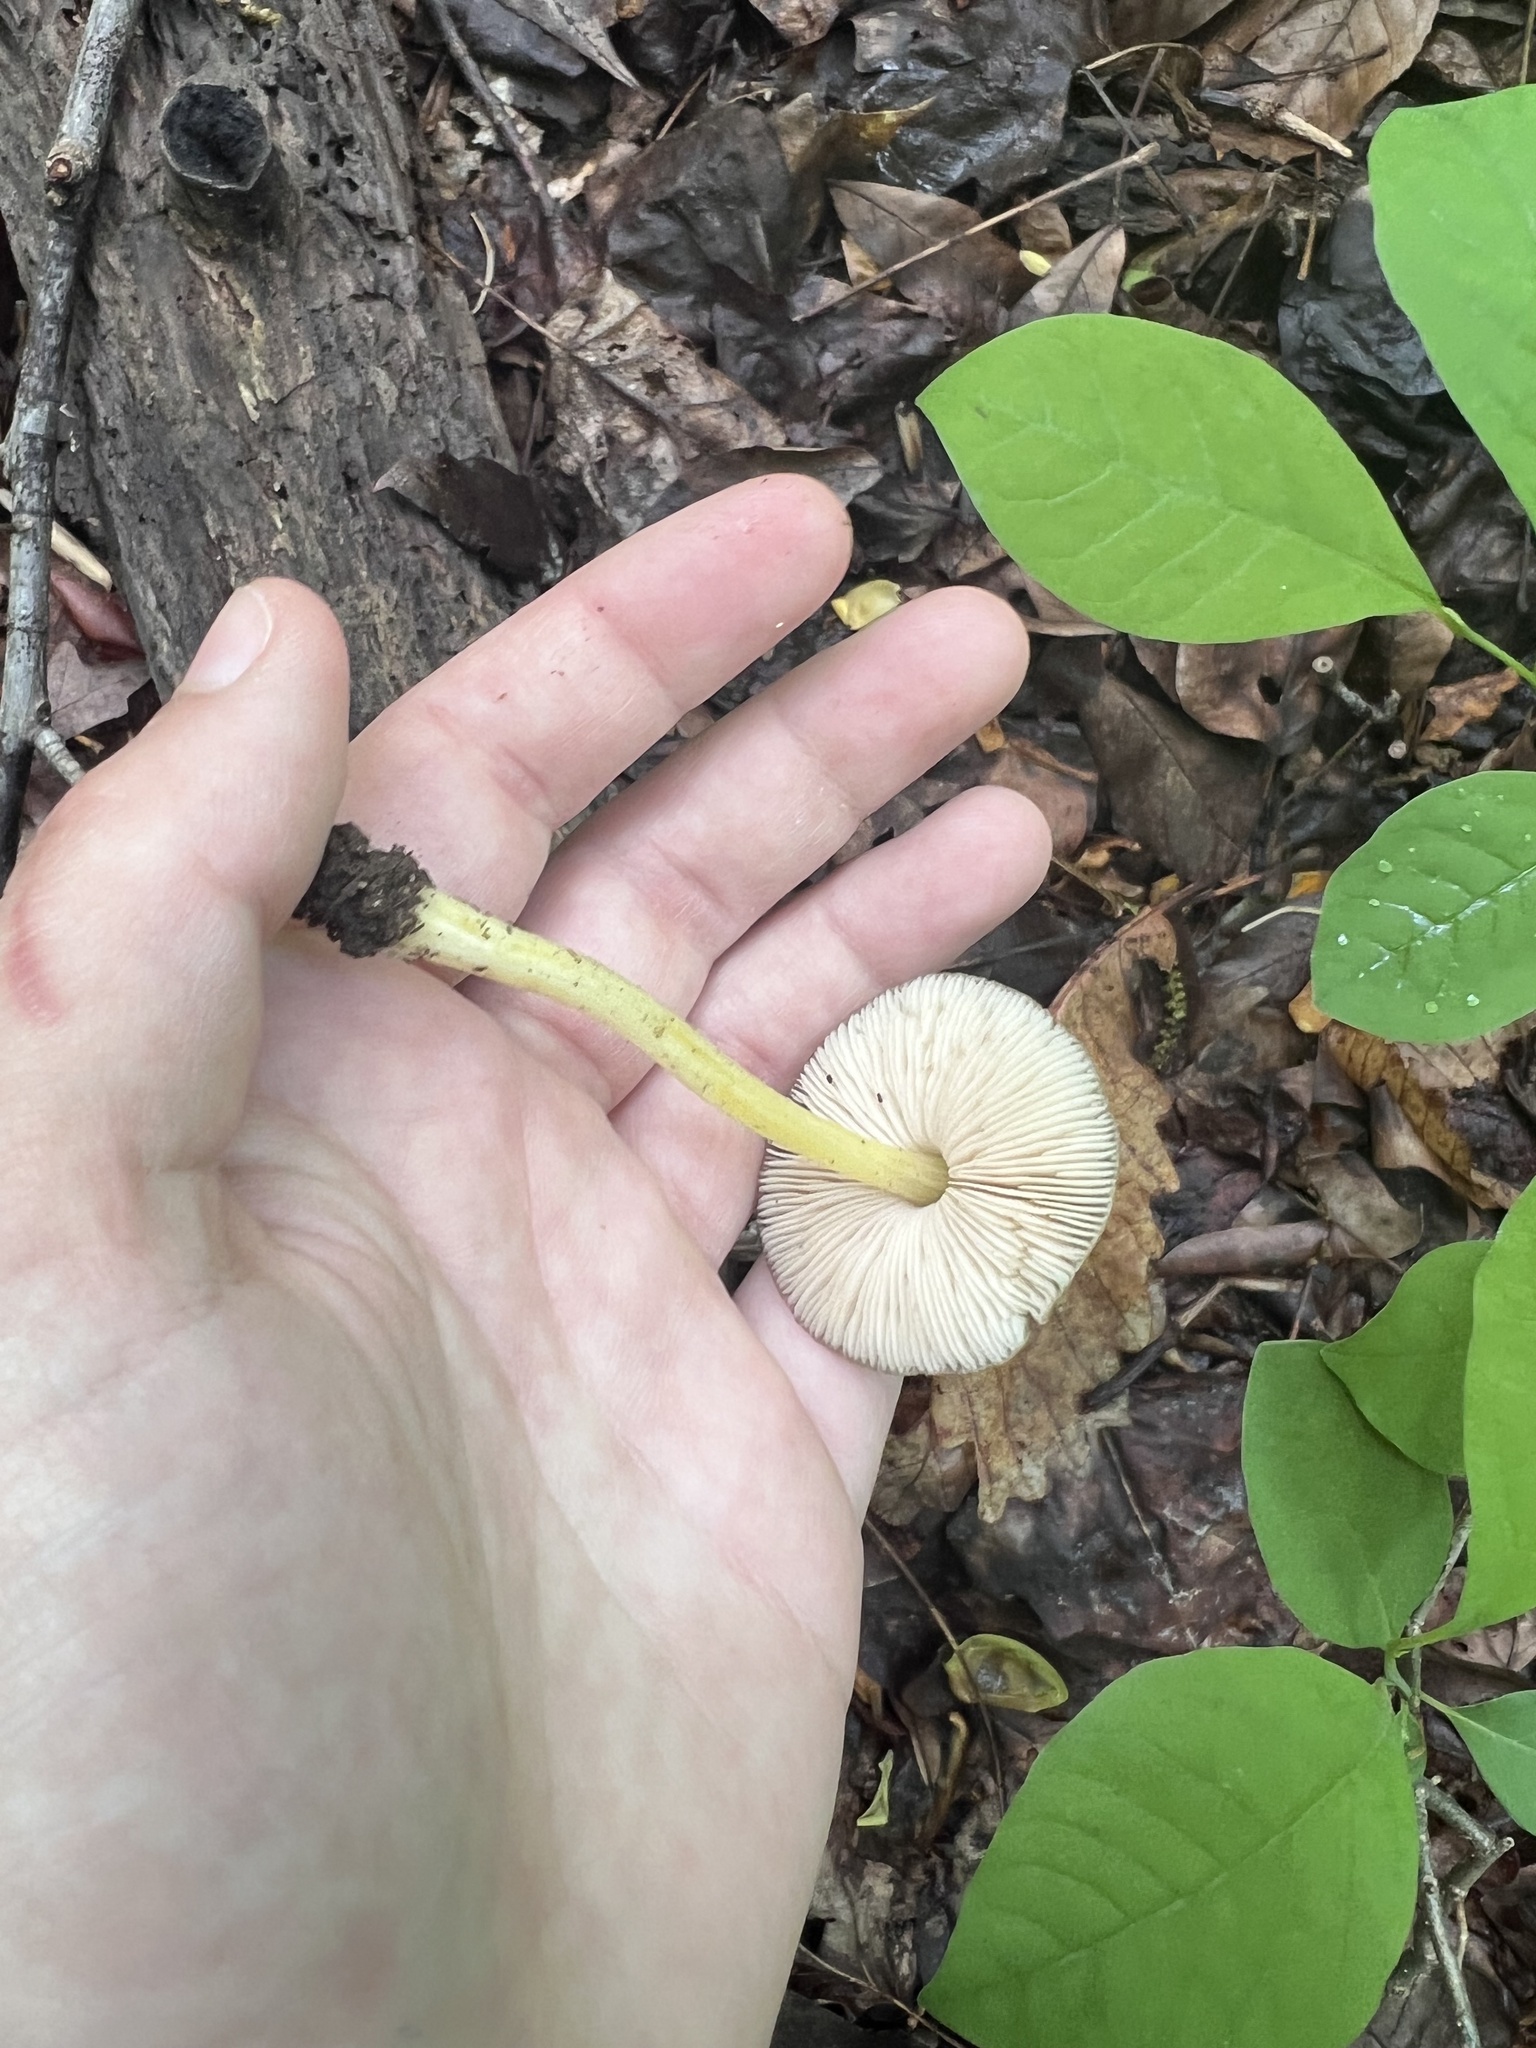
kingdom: Fungi
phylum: Basidiomycota
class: Agaricomycetes
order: Agaricales
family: Pluteaceae
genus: Pluteus
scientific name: Pluteus cervinus
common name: Deer shield
